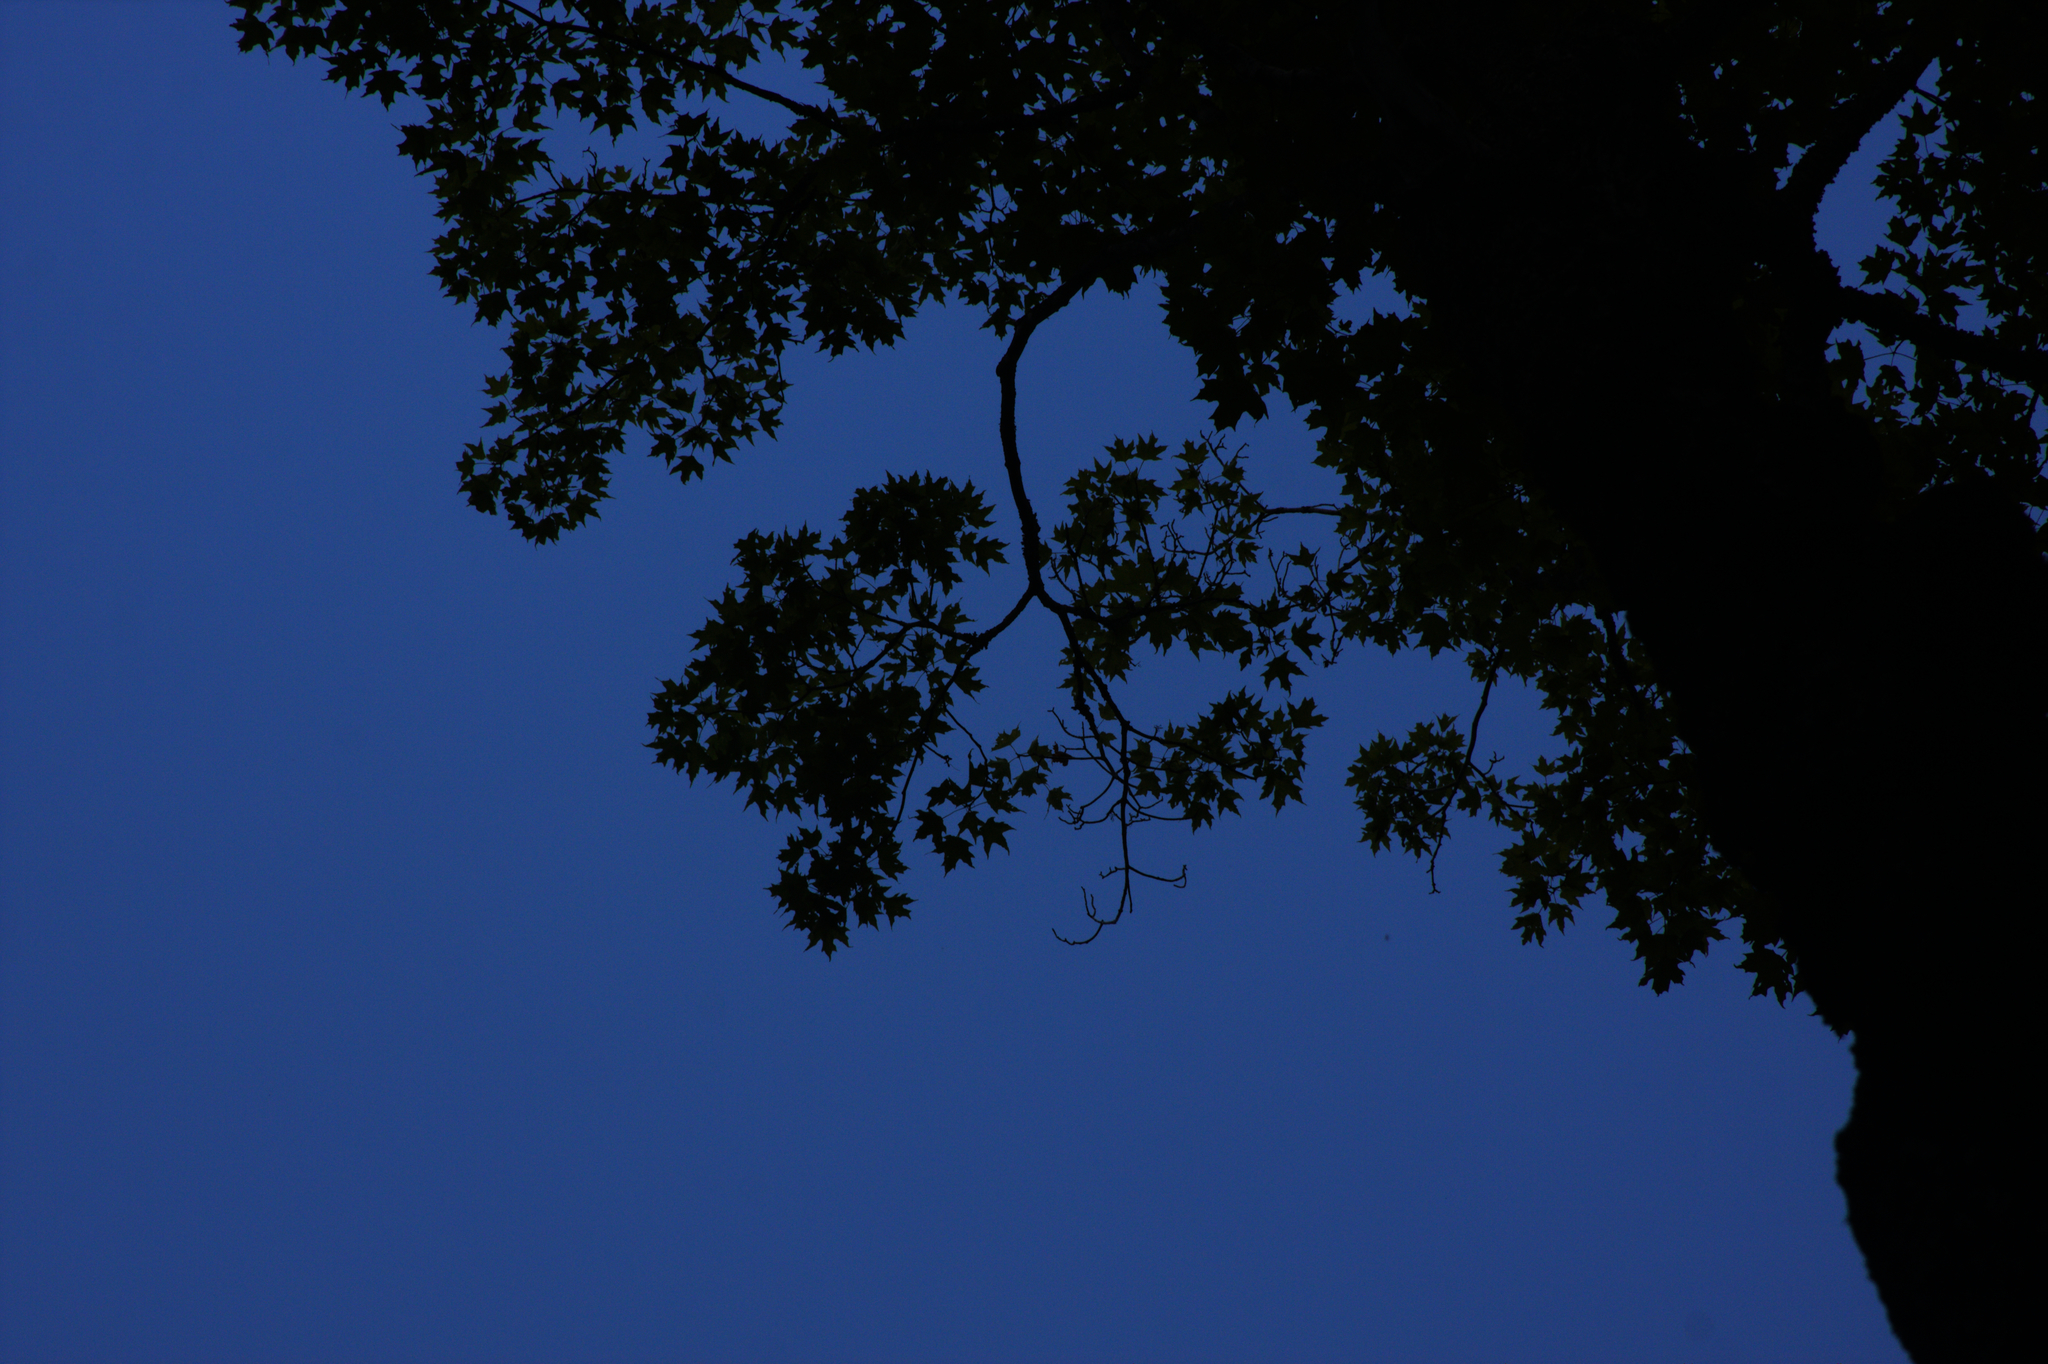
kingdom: Plantae
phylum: Tracheophyta
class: Magnoliopsida
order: Sapindales
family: Sapindaceae
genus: Acer
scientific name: Acer rubrum
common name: Red maple
